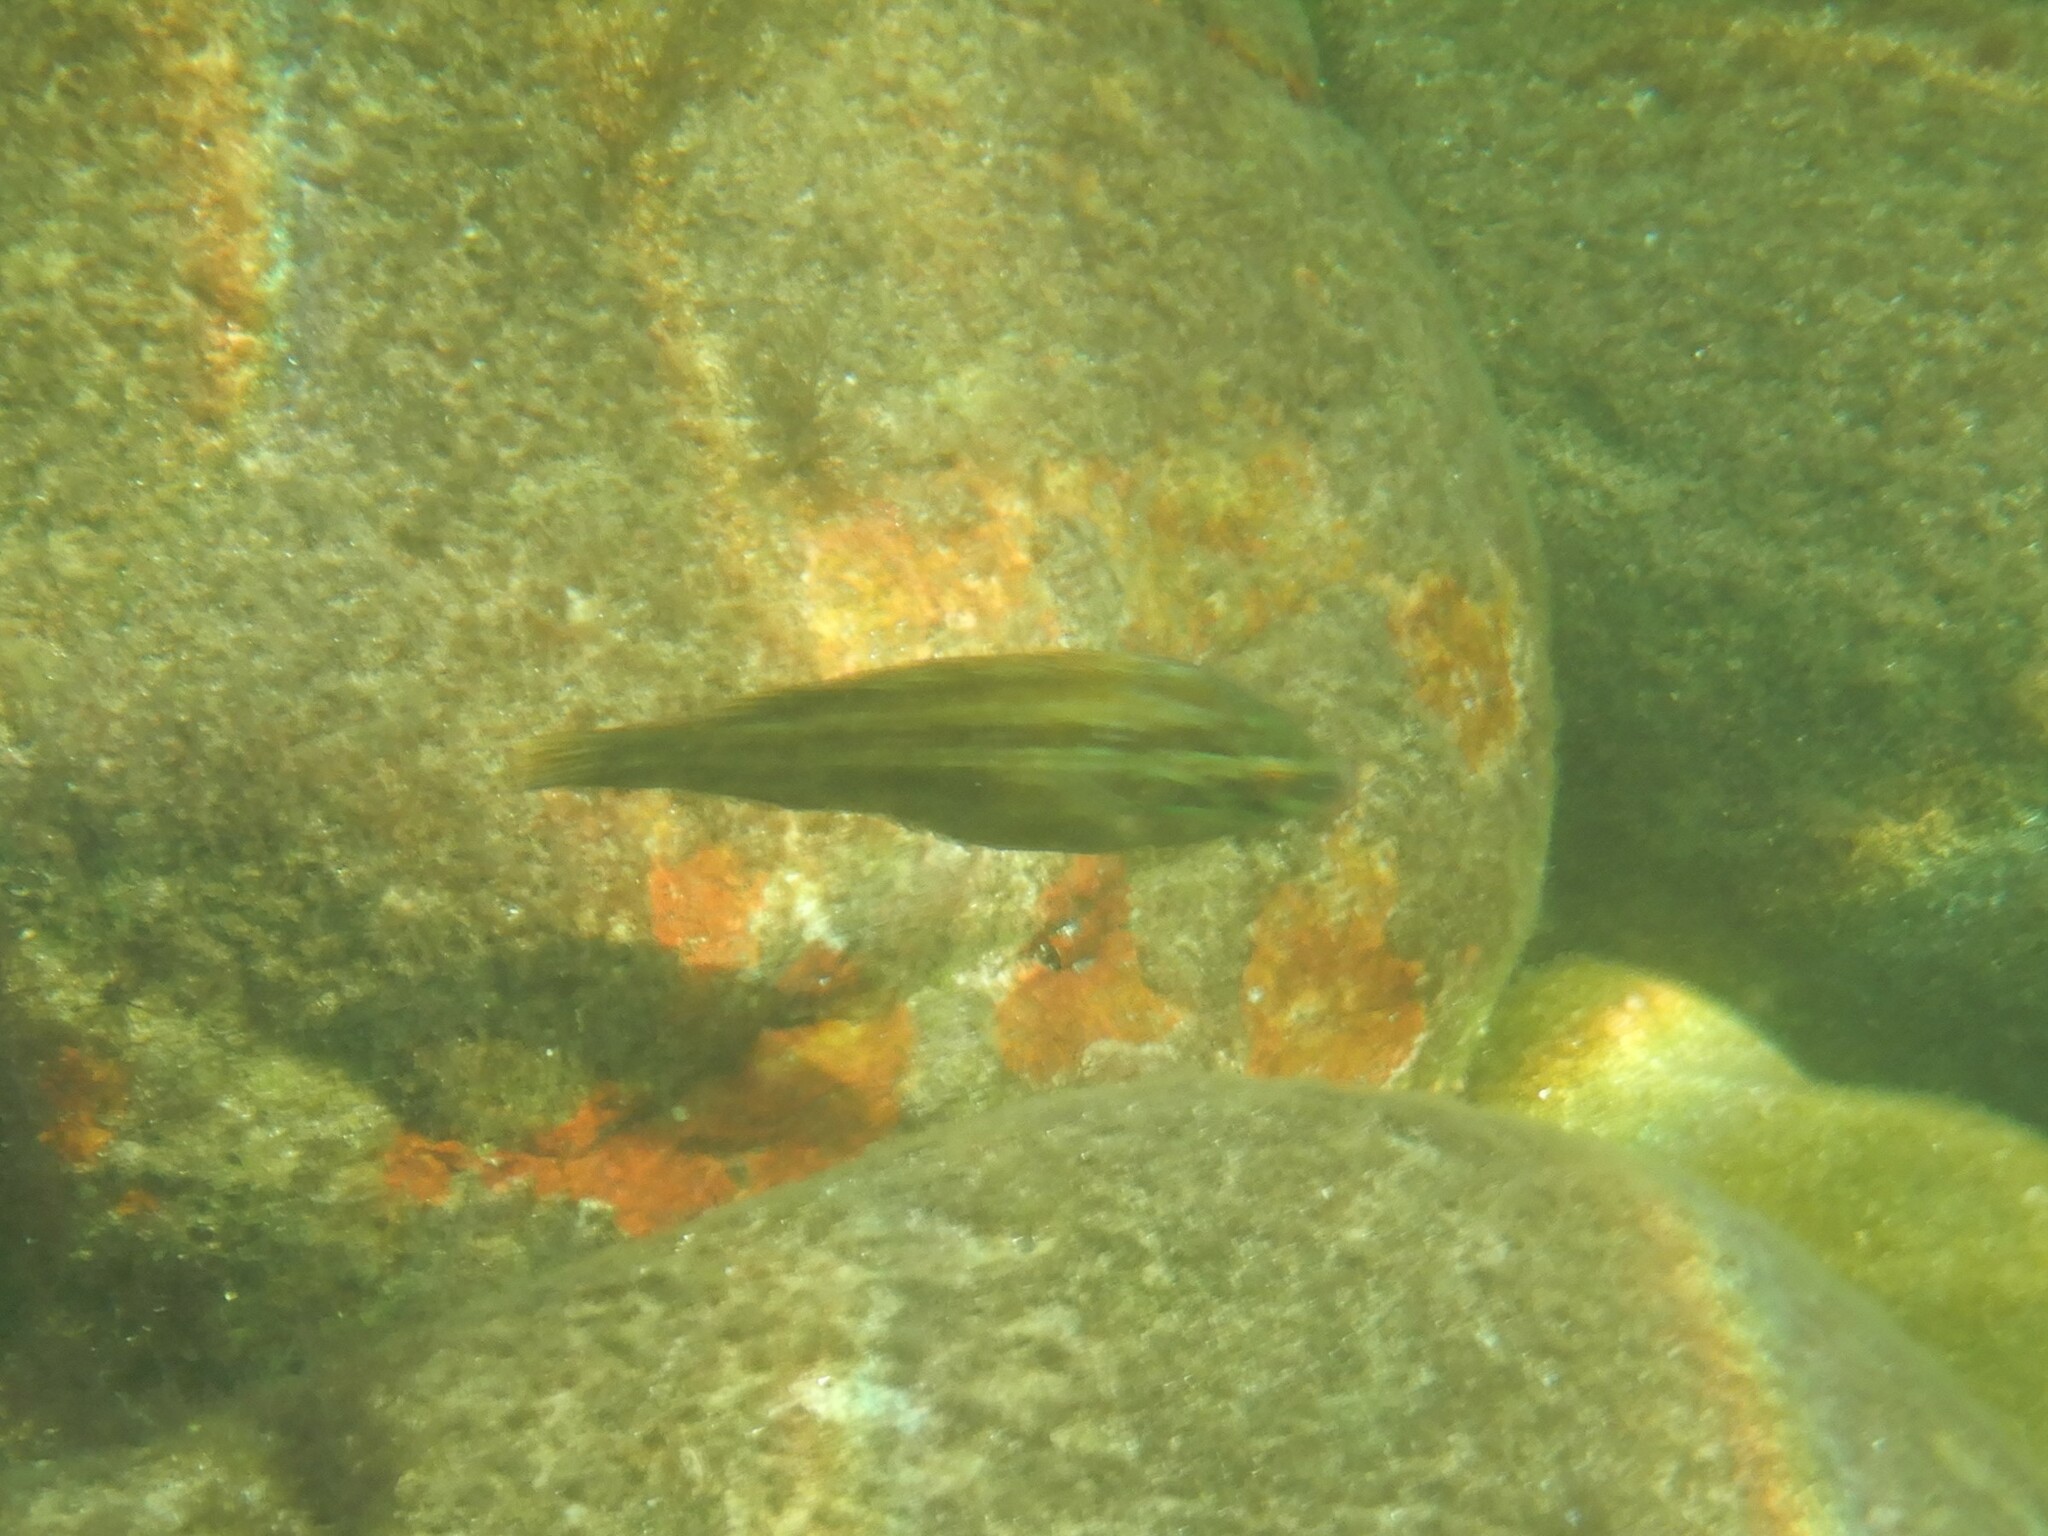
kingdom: Animalia
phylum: Chordata
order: Perciformes
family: Labridae
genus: Symphodus
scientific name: Symphodus roissali
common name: Five-spotted wrasse
